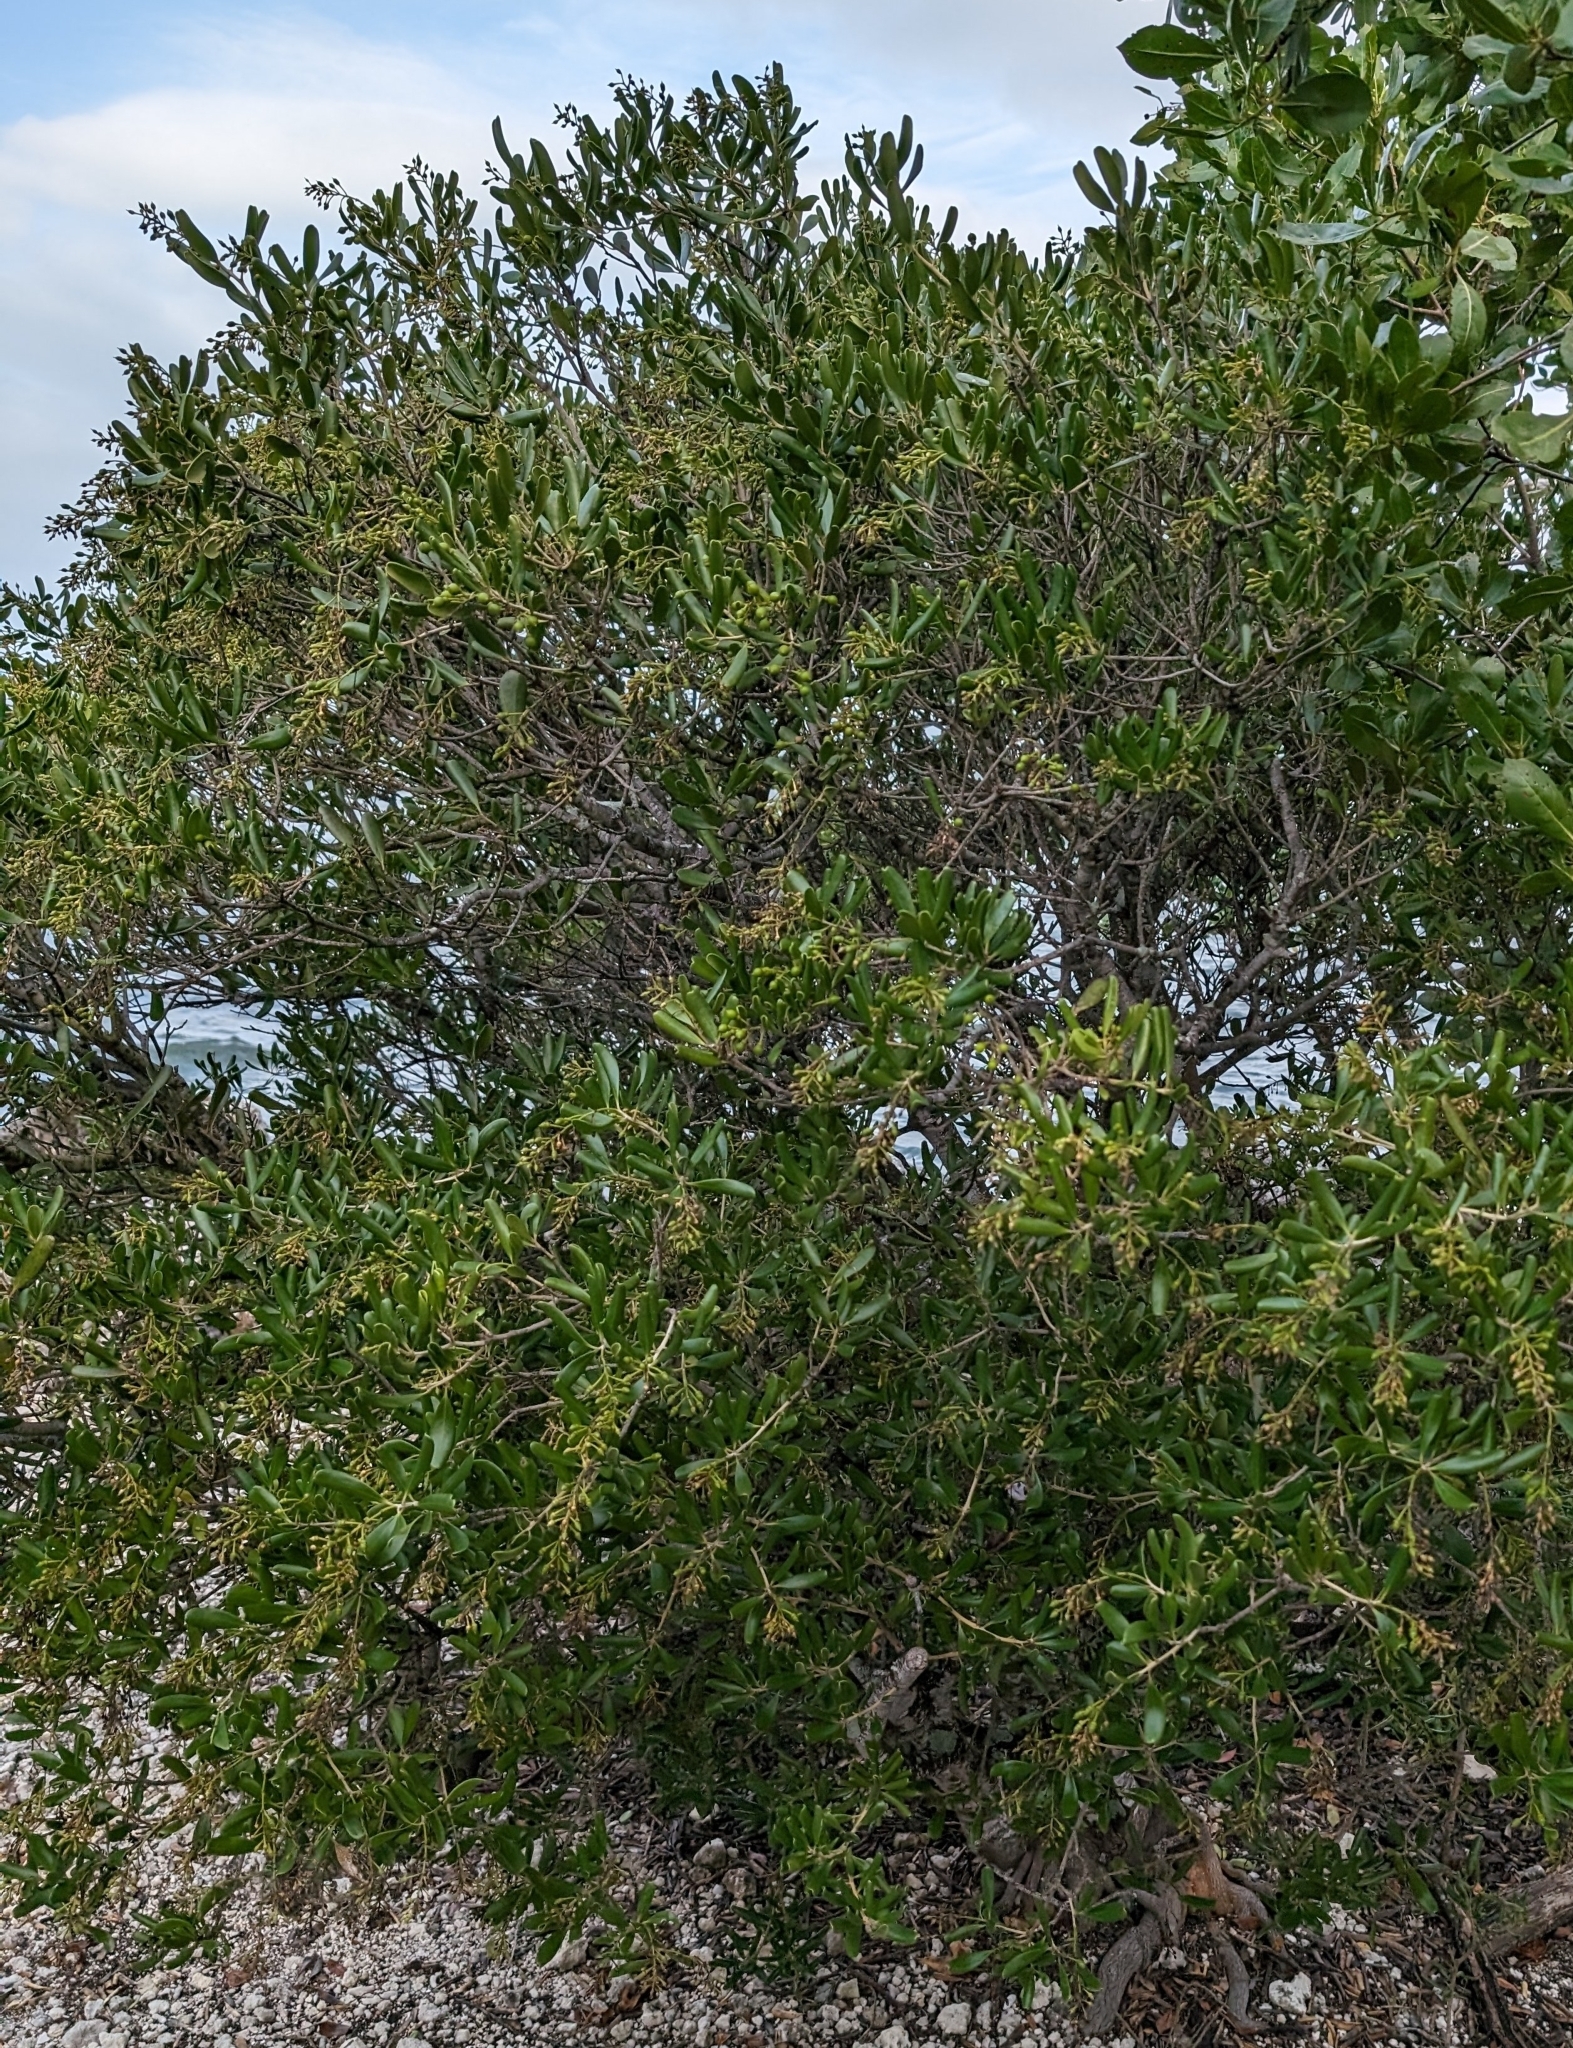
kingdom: Plantae
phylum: Tracheophyta
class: Magnoliopsida
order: Ericales
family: Primulaceae
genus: Jacquinia
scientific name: Jacquinia keyensis
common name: Joebush
